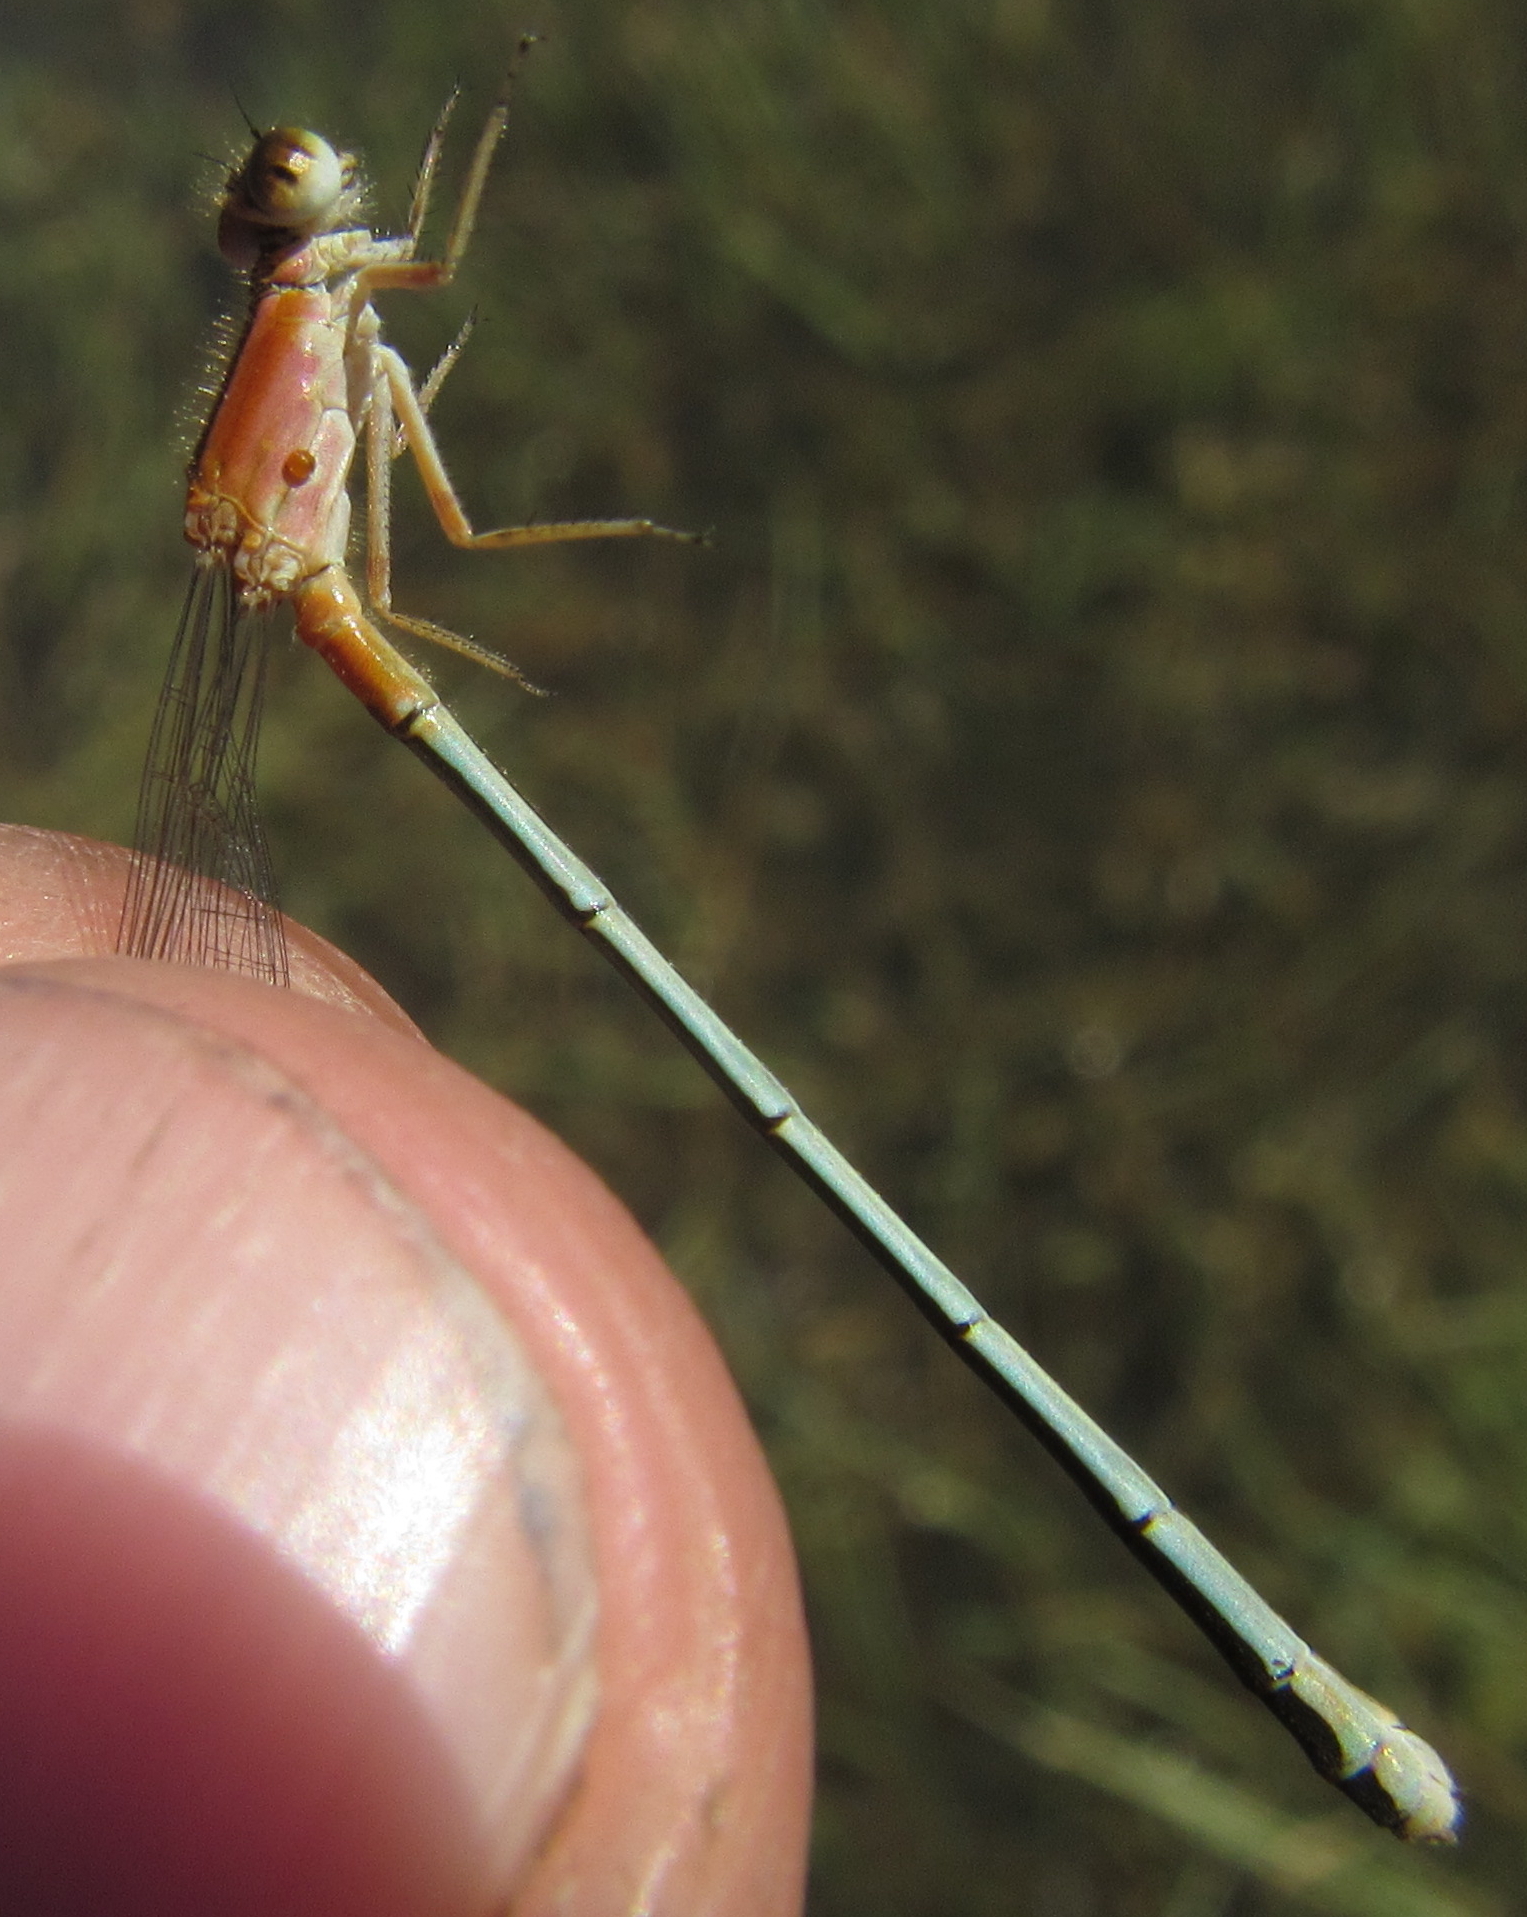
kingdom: Animalia
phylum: Arthropoda
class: Insecta
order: Odonata
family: Coenagrionidae
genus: Ischnura
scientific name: Ischnura senegalensis
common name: Tropical bluetail
